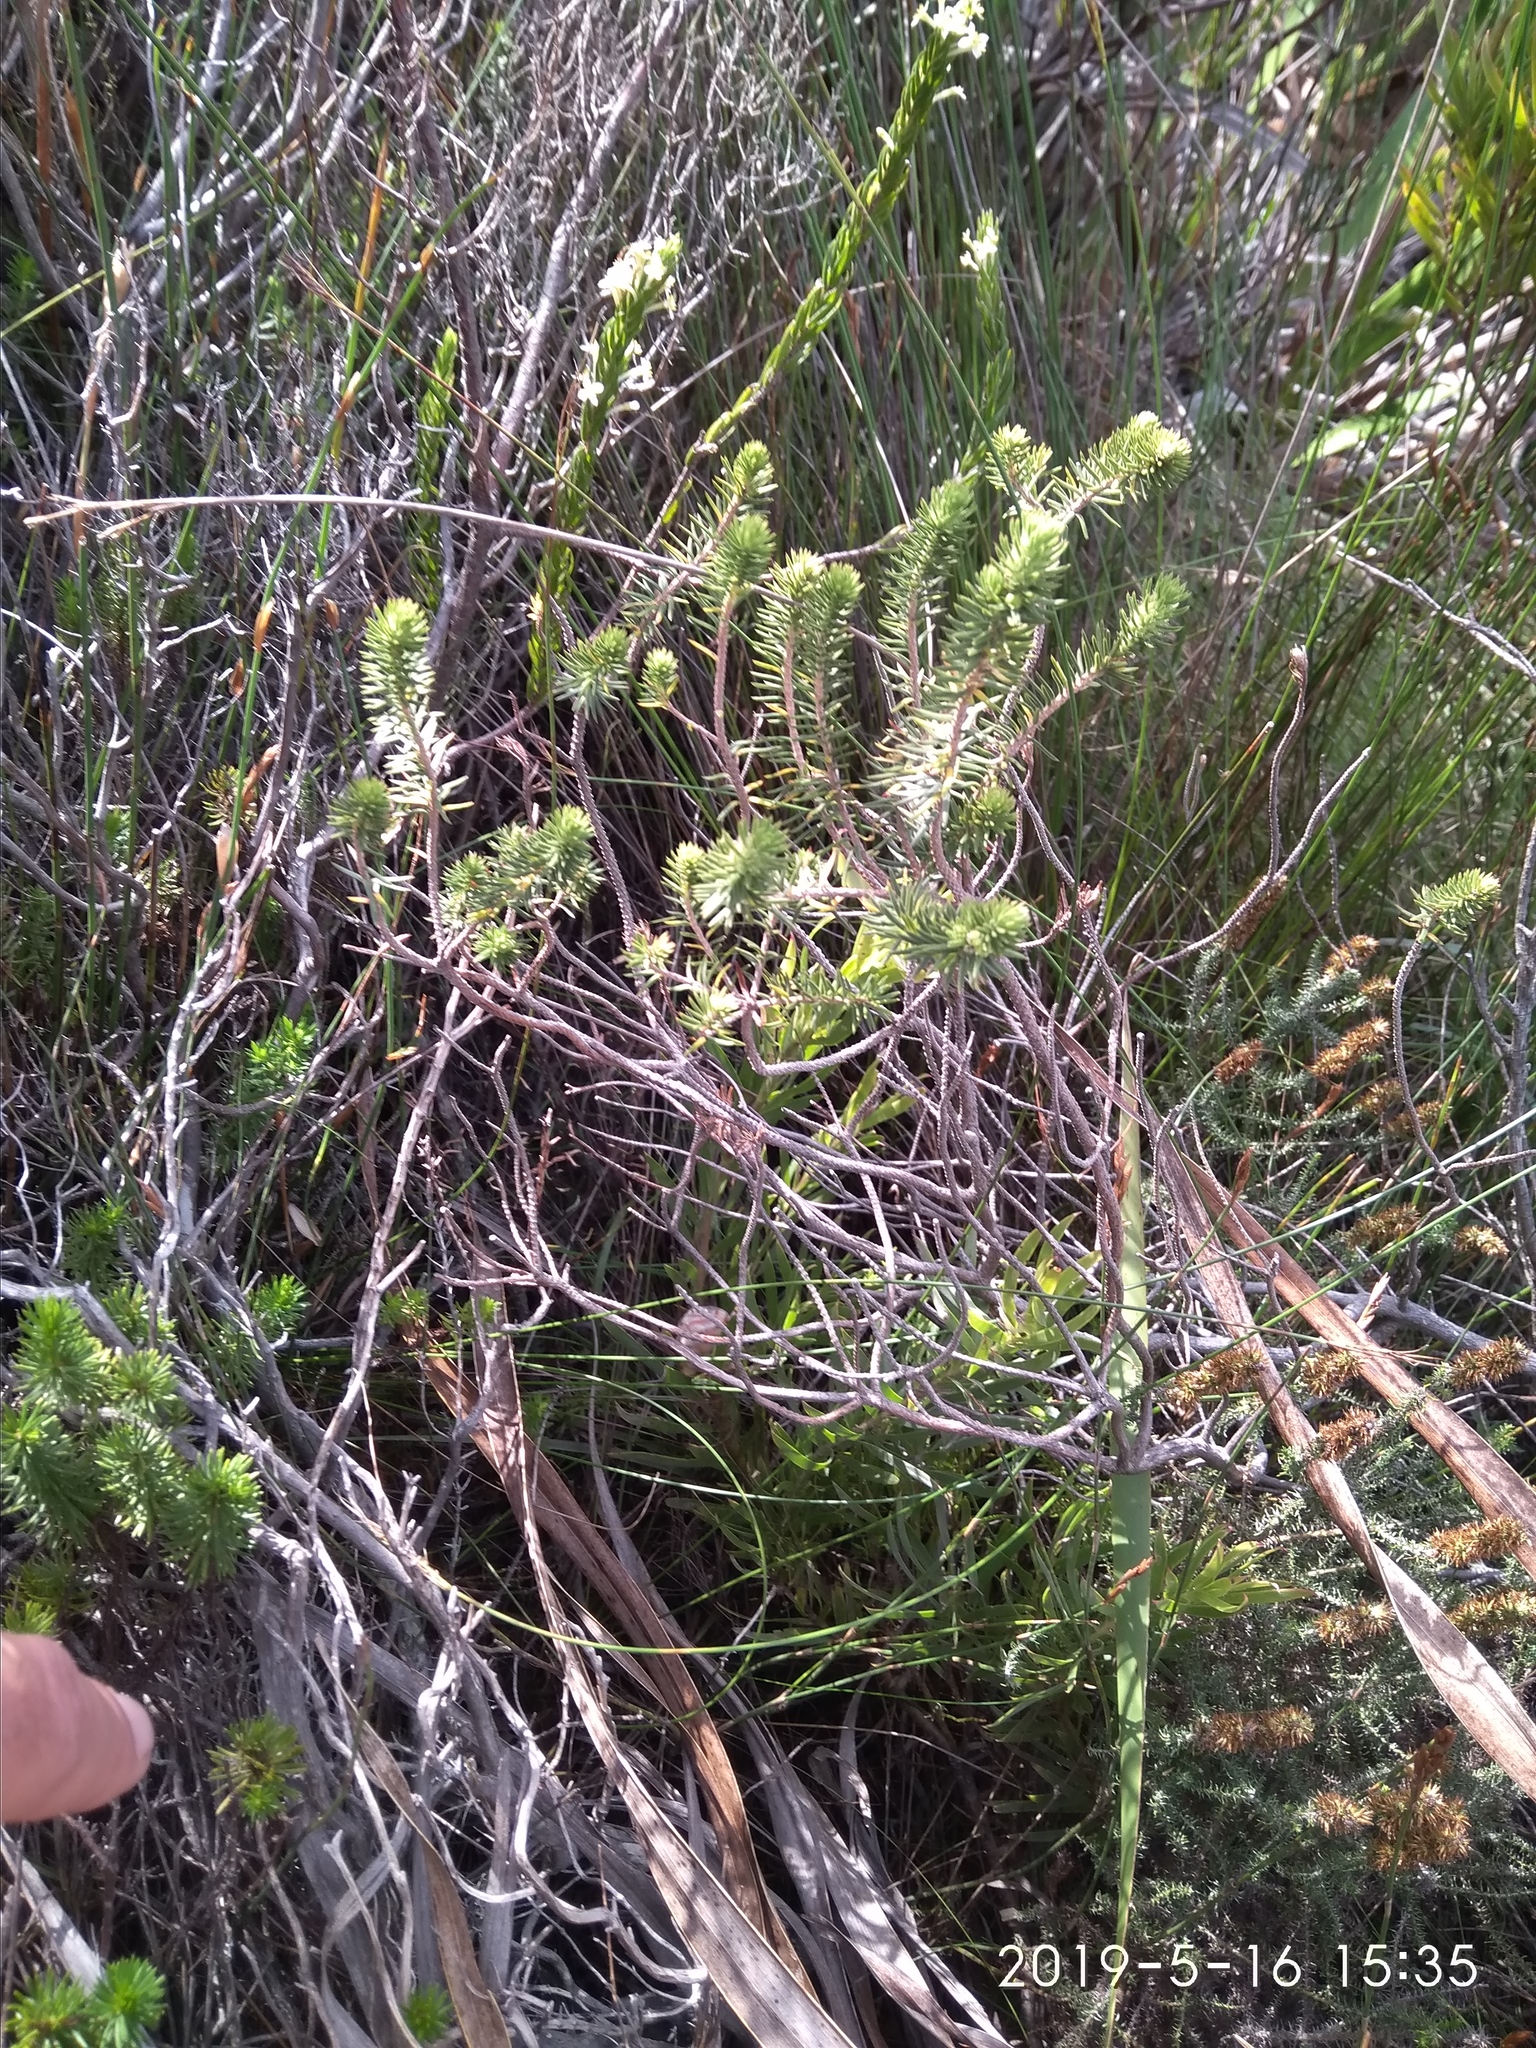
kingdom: Plantae
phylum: Tracheophyta
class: Magnoliopsida
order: Ericales
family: Ericaceae
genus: Erica
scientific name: Erica abietina
